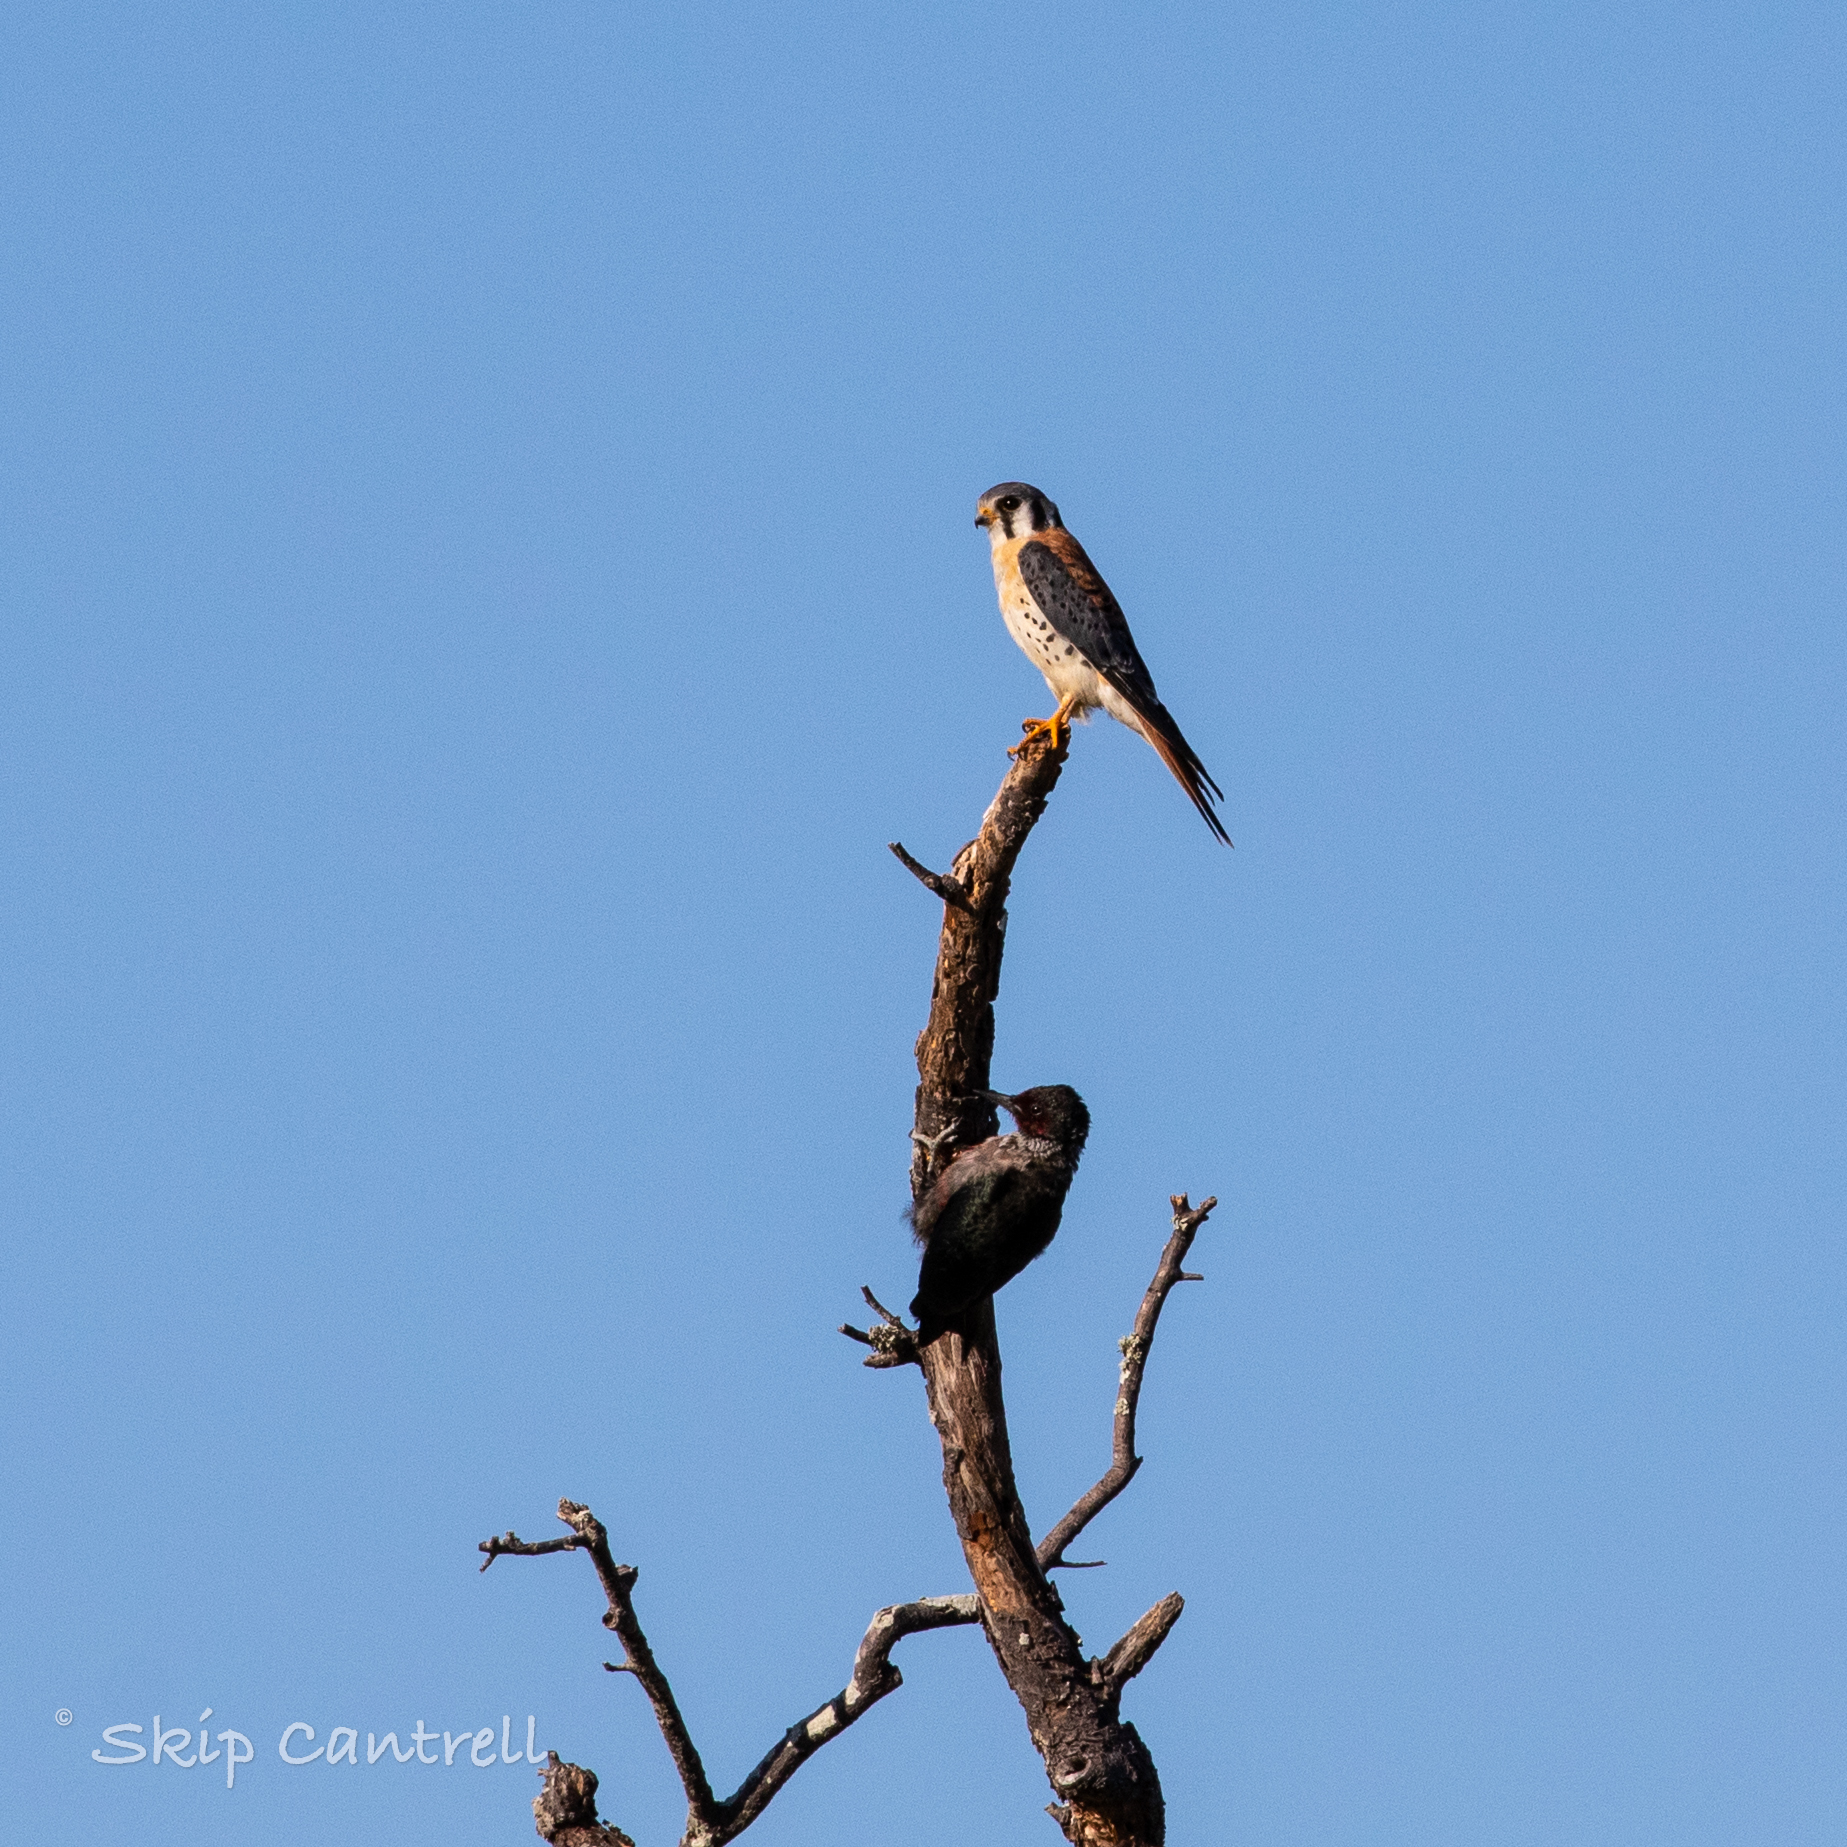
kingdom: Animalia
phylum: Chordata
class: Aves
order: Falconiformes
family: Falconidae
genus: Falco
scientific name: Falco sparverius
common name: American kestrel
